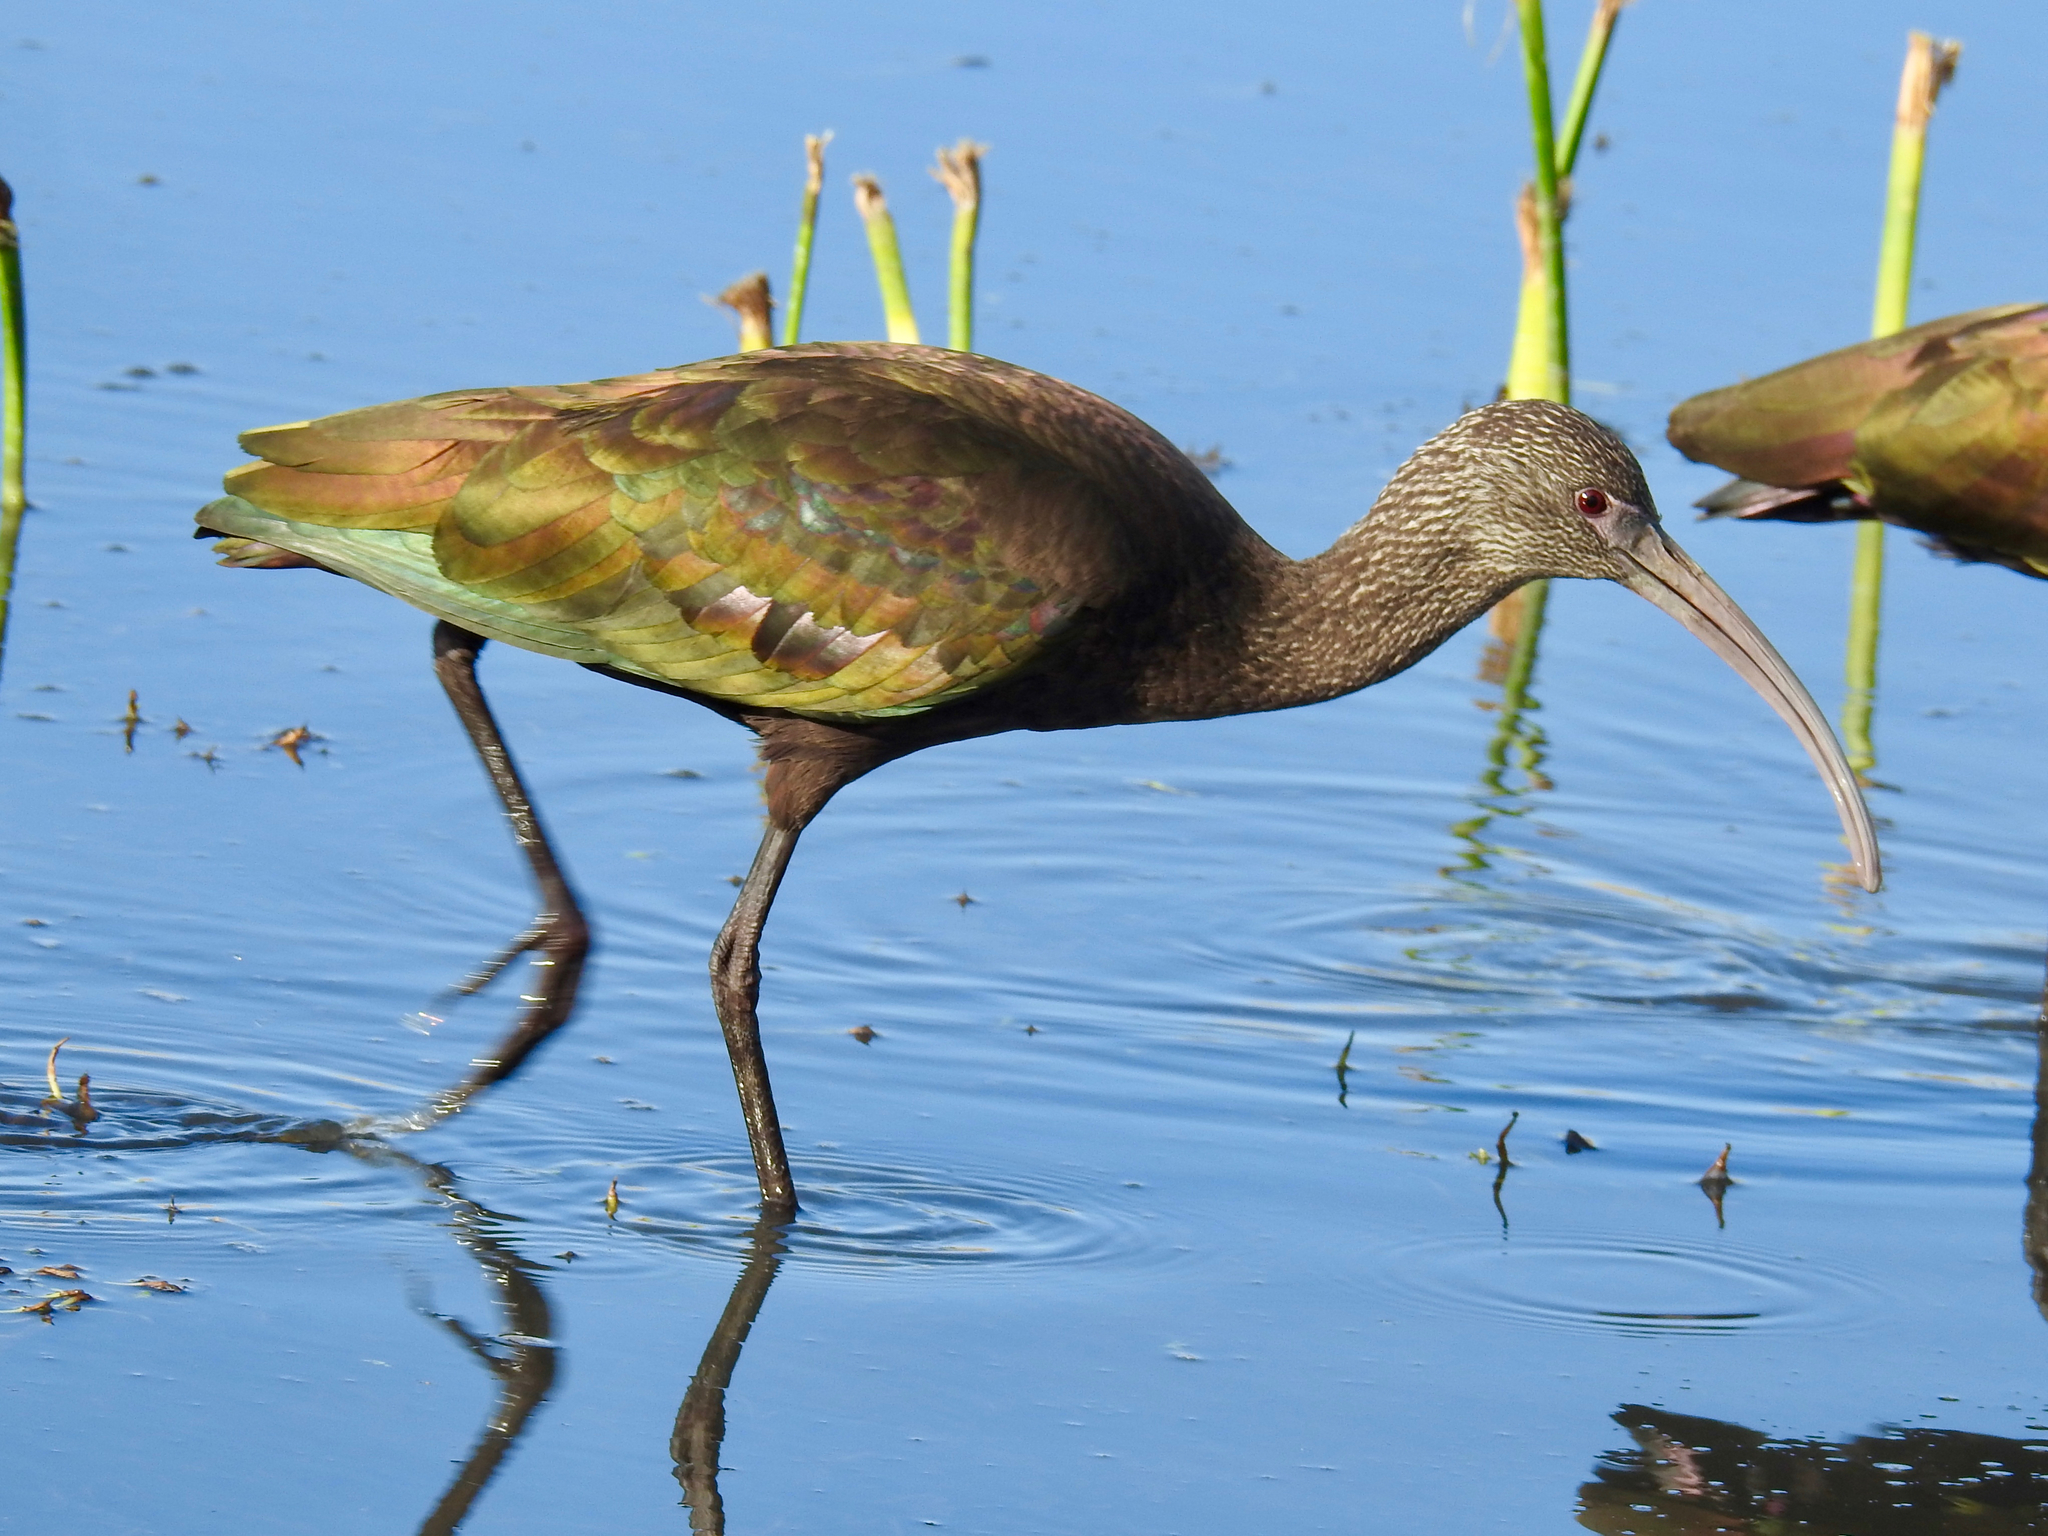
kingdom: Animalia
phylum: Chordata
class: Aves
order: Pelecaniformes
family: Threskiornithidae
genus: Plegadis
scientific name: Plegadis chihi
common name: White-faced ibis
